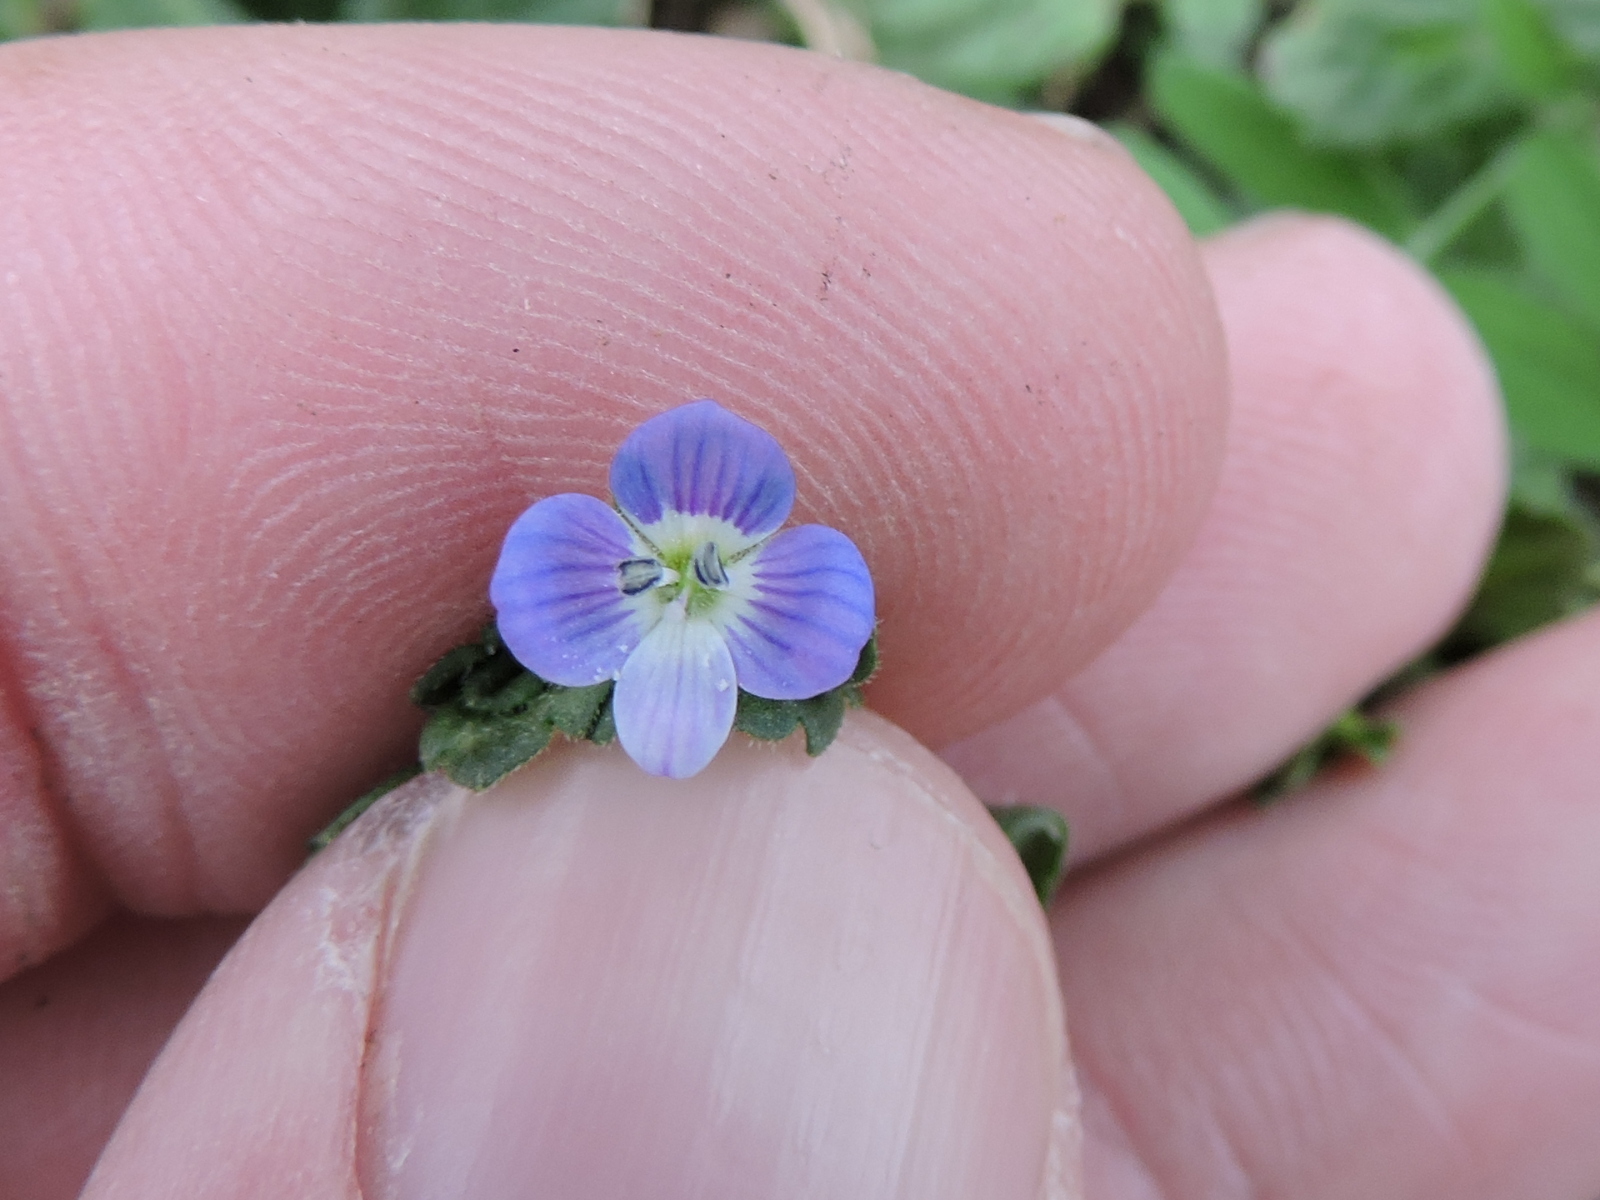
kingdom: Plantae
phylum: Tracheophyta
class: Magnoliopsida
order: Lamiales
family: Plantaginaceae
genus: Veronica
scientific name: Veronica persica
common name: Common field-speedwell
